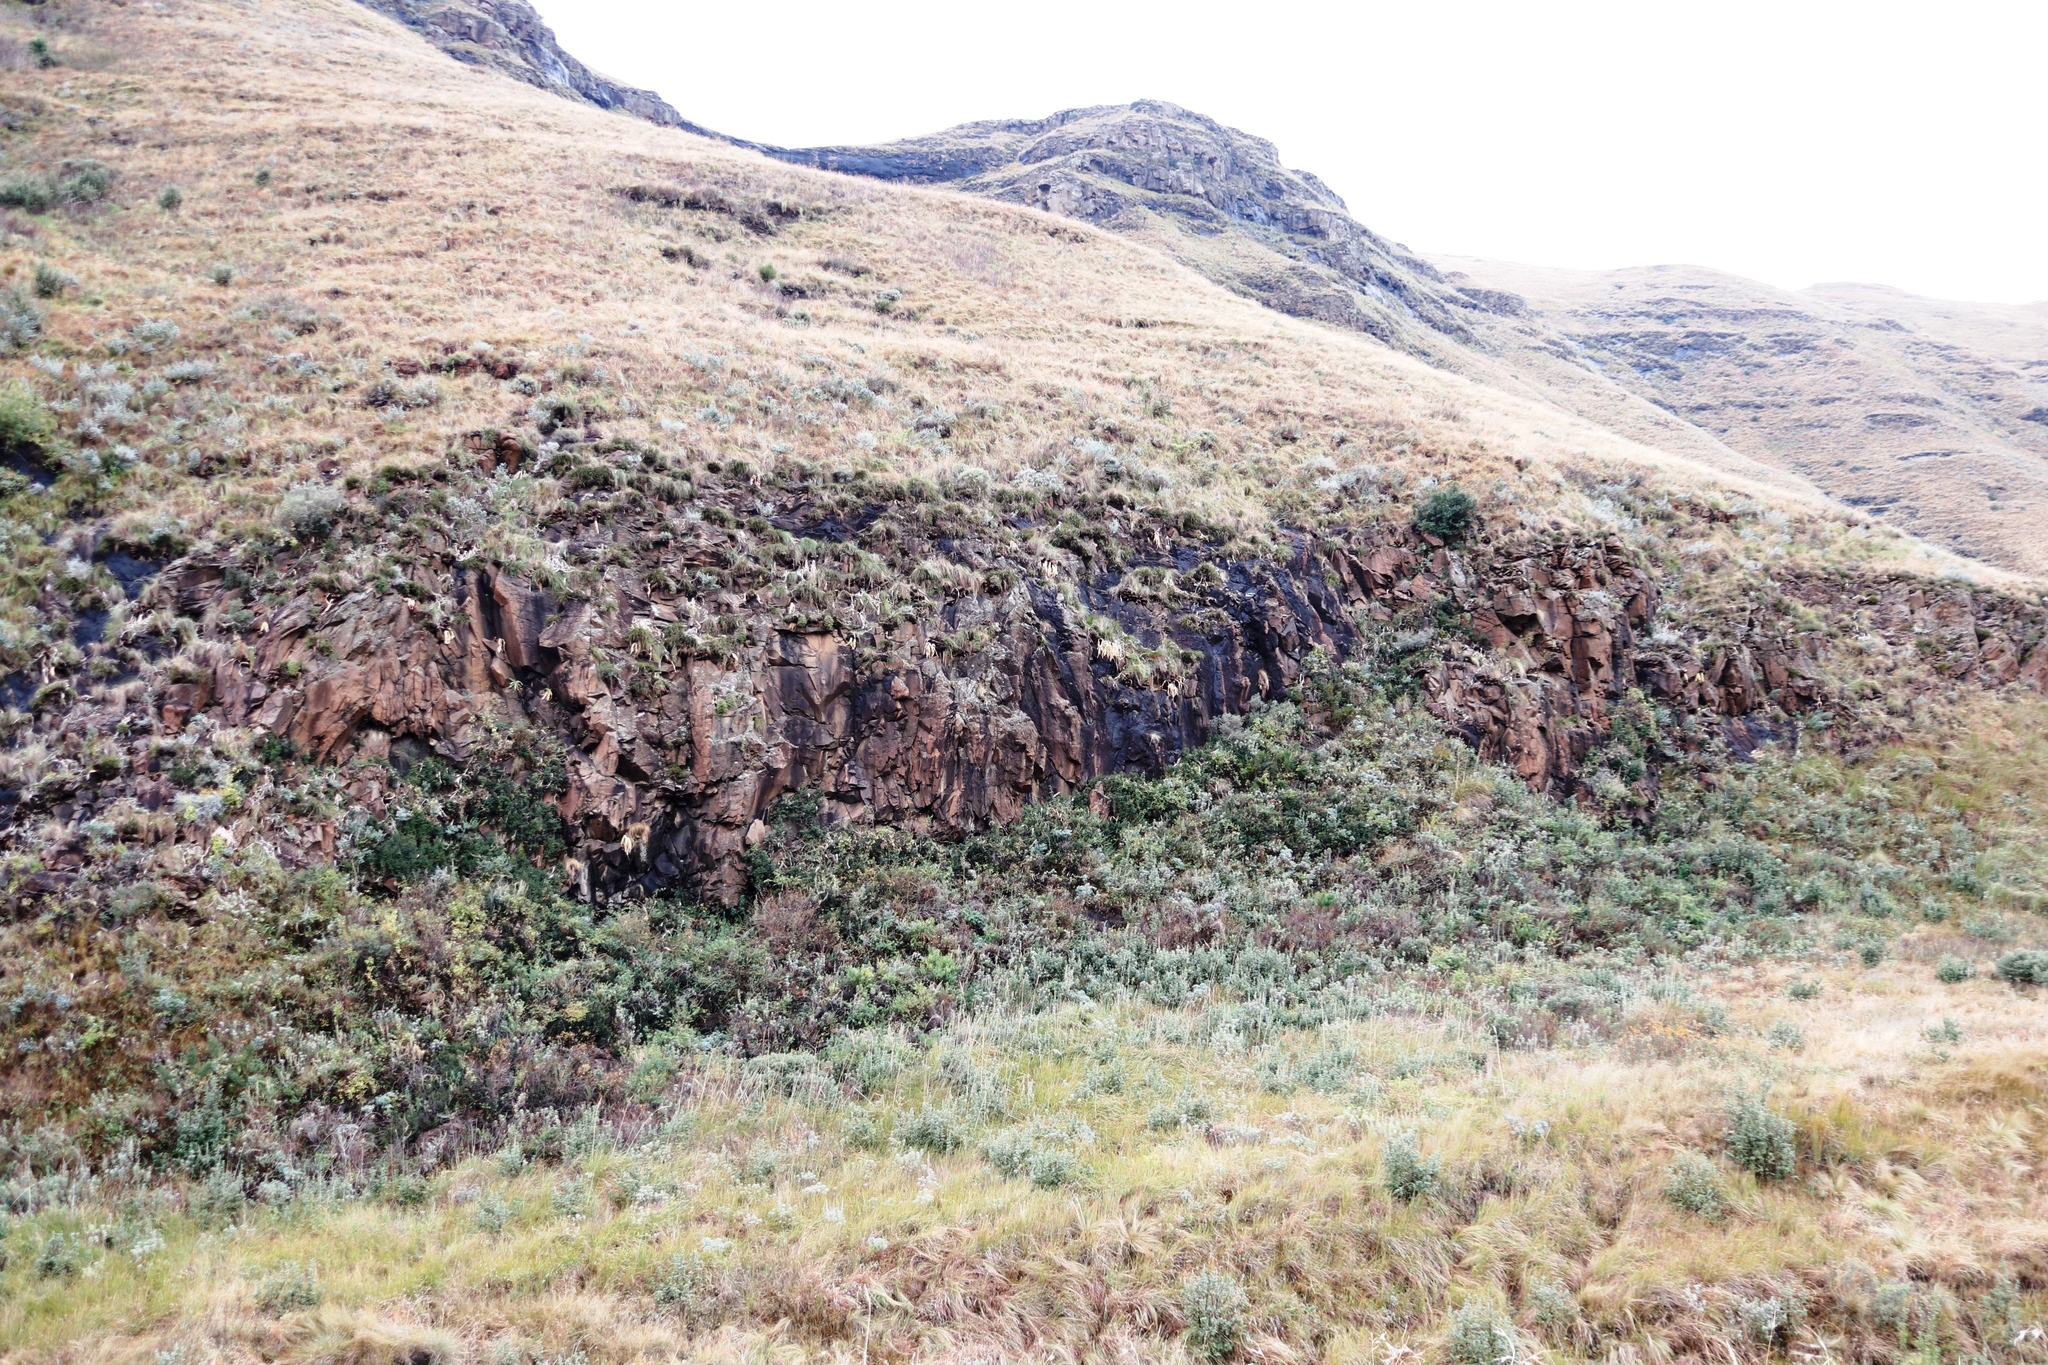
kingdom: Plantae
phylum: Tracheophyta
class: Magnoliopsida
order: Rosales
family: Rosaceae
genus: Leucosidea
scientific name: Leucosidea sericea
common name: Oldwood
